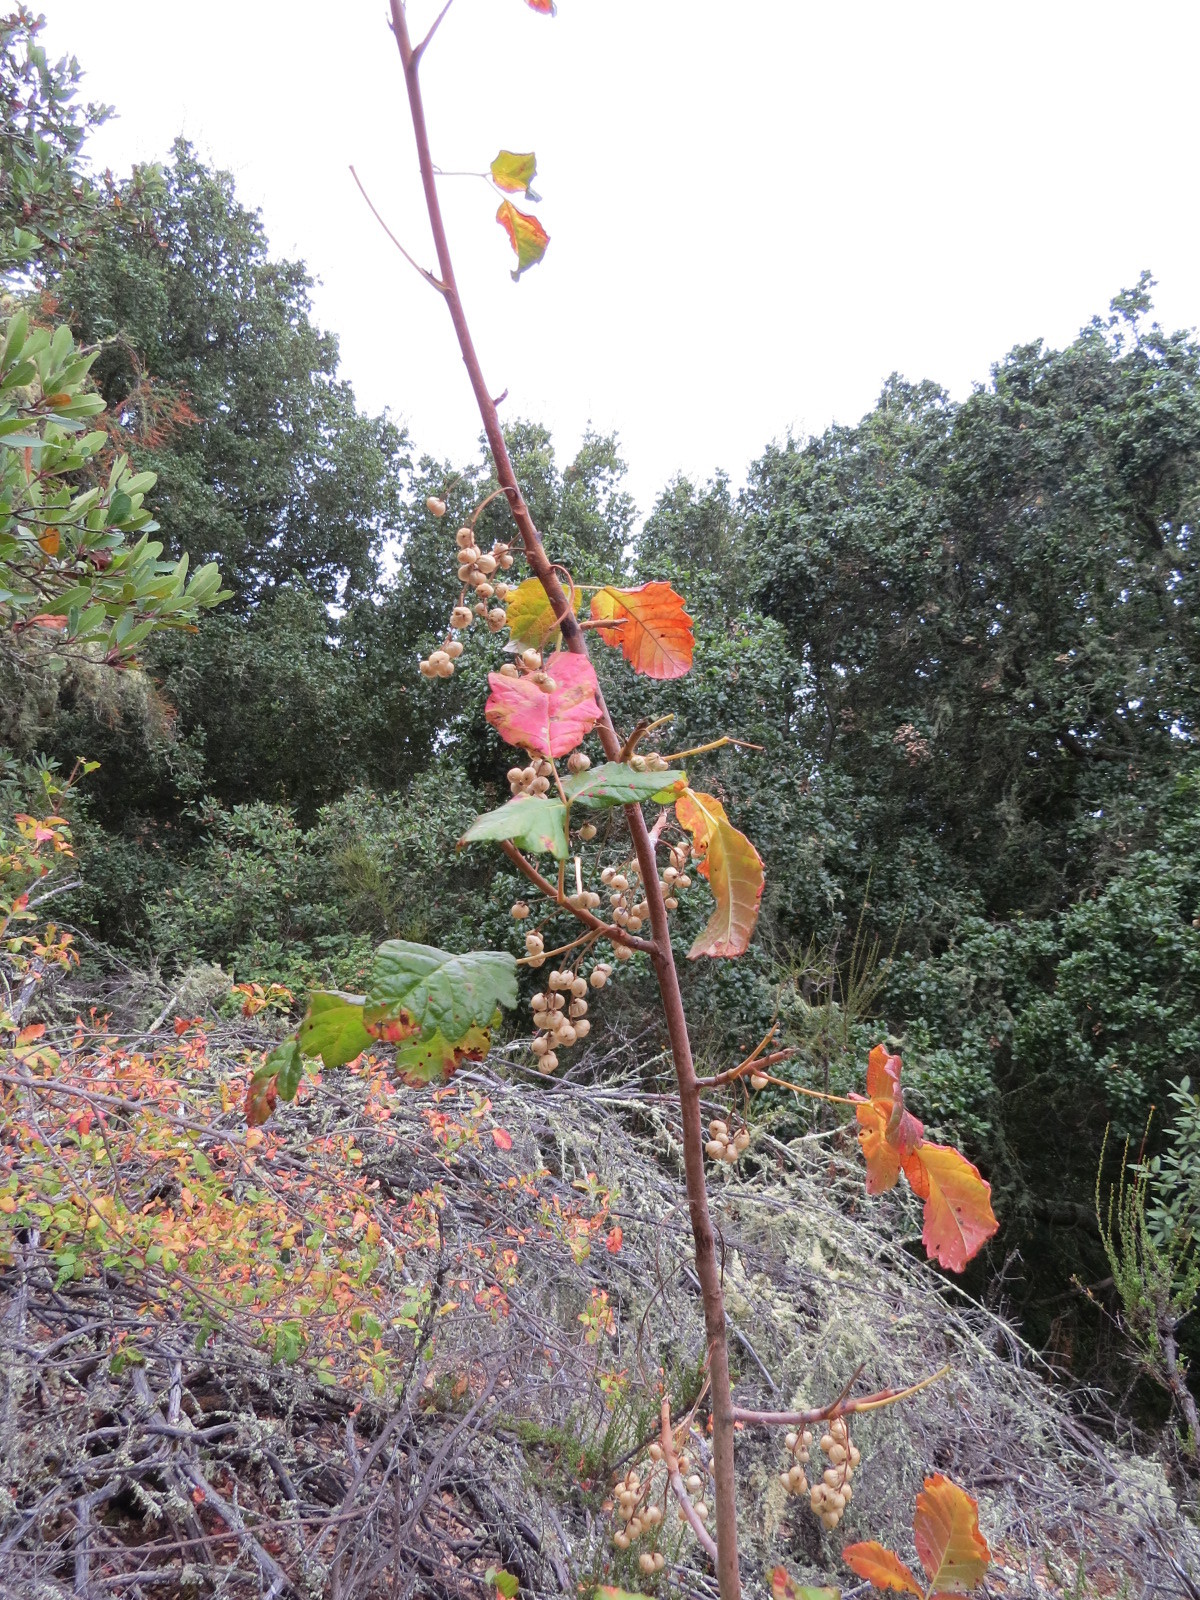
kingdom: Plantae
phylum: Tracheophyta
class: Magnoliopsida
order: Sapindales
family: Anacardiaceae
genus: Toxicodendron
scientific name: Toxicodendron diversilobum
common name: Pacific poison-oak
